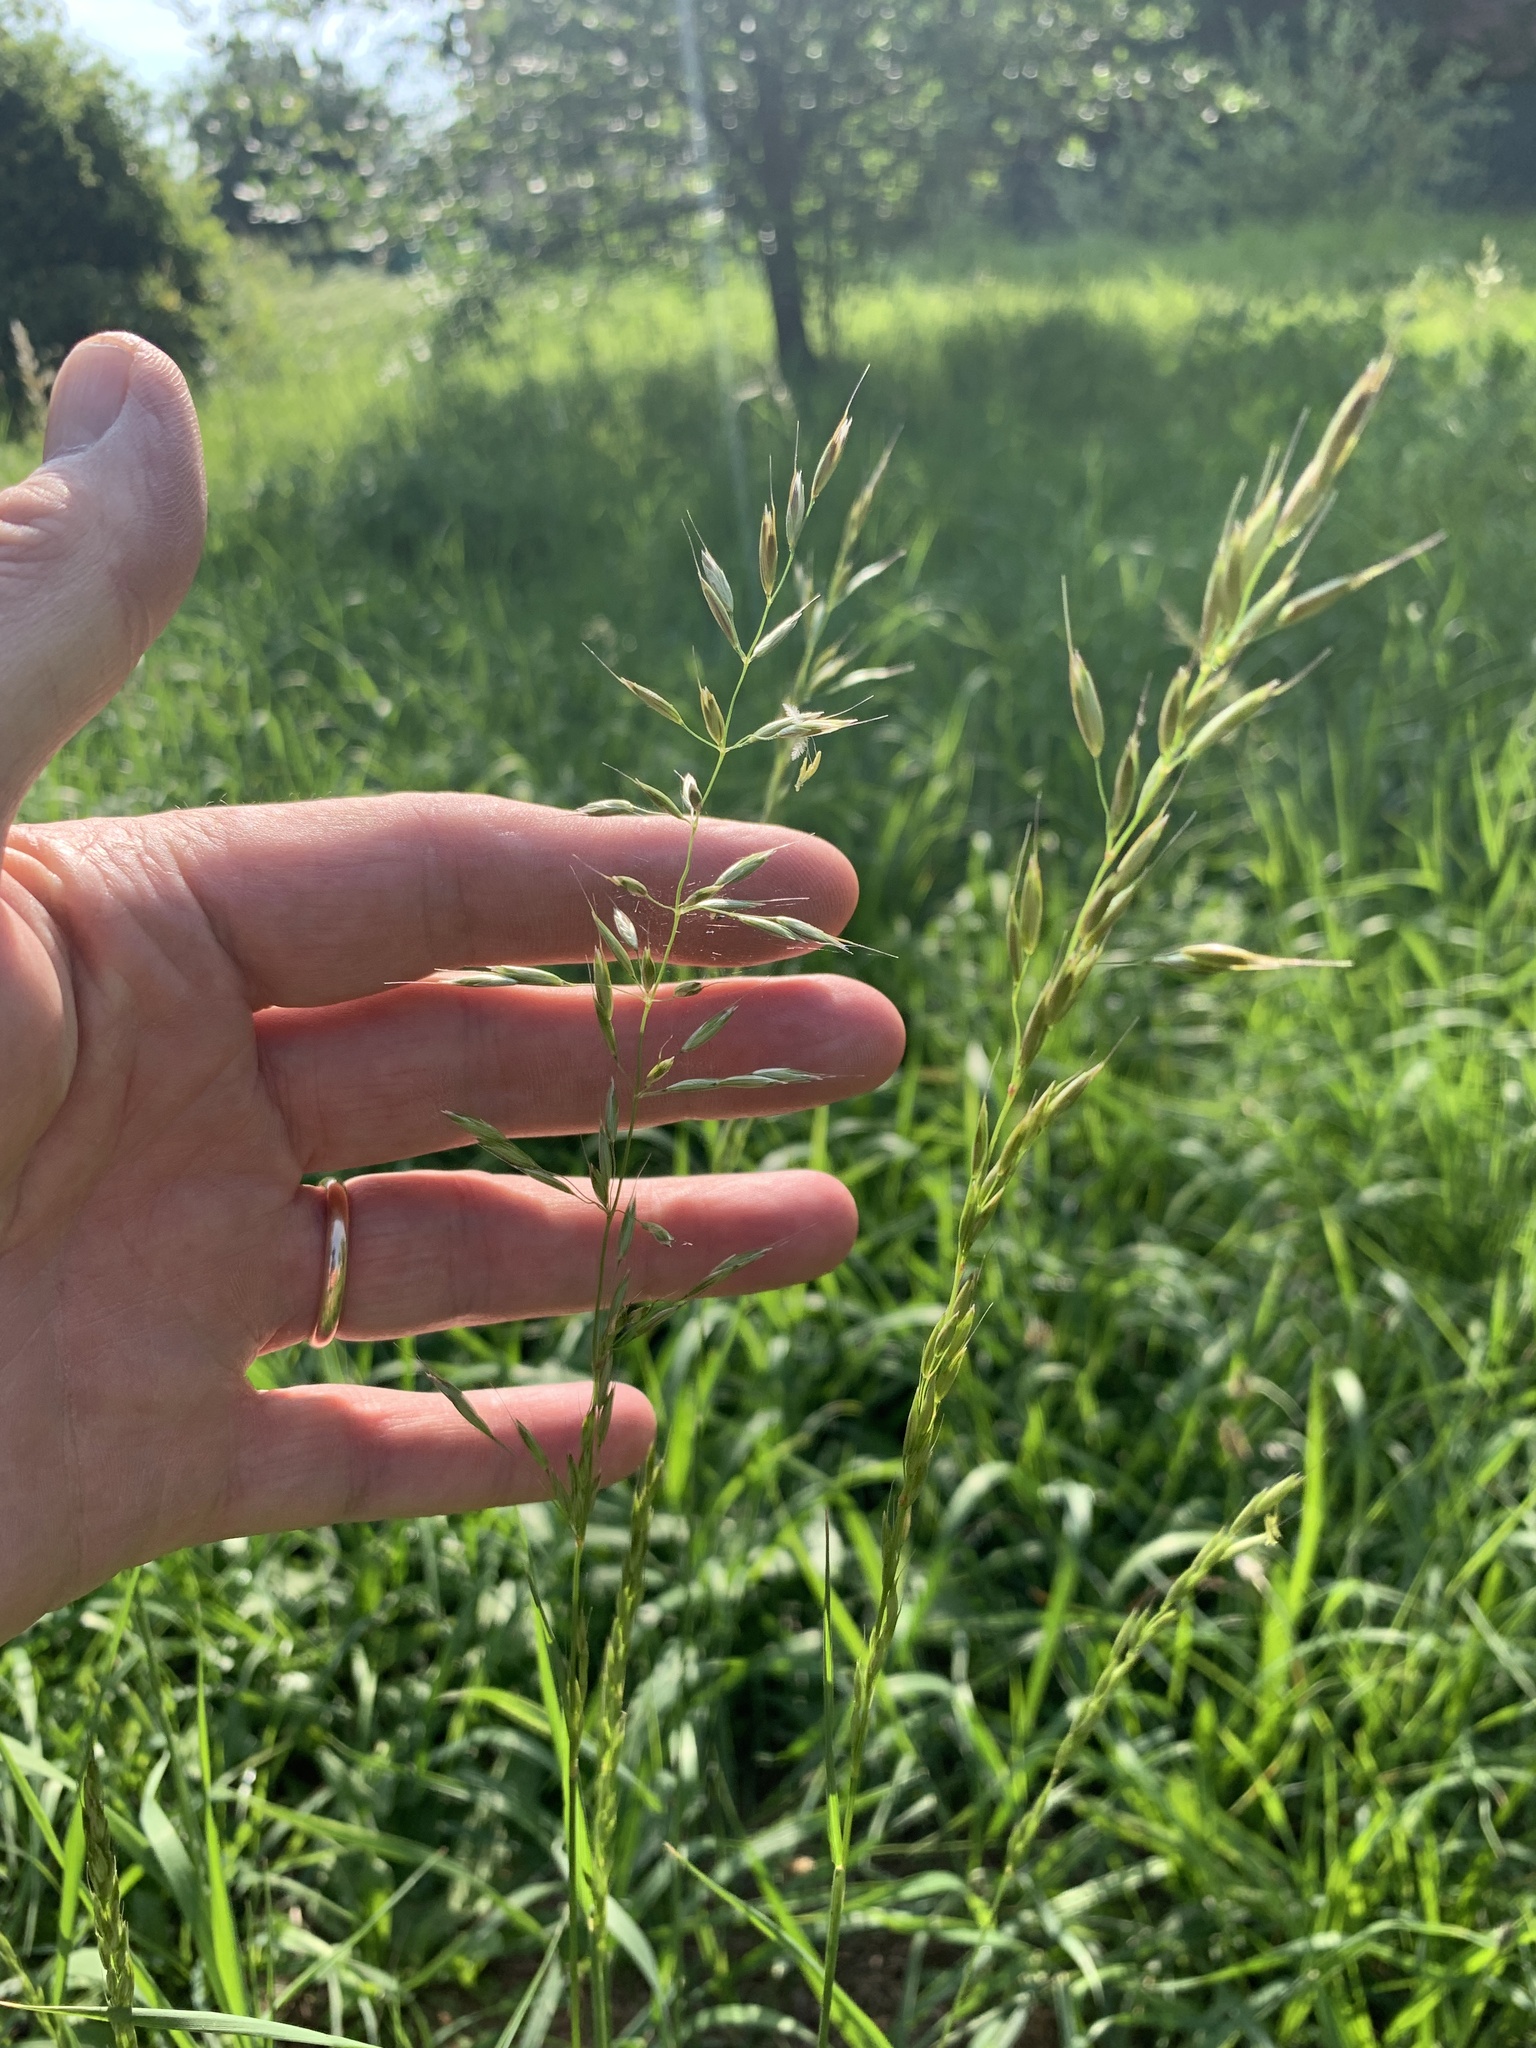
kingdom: Plantae
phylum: Tracheophyta
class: Liliopsida
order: Poales
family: Poaceae
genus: Arrhenatherum
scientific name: Arrhenatherum elatius
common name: Tall oatgrass
